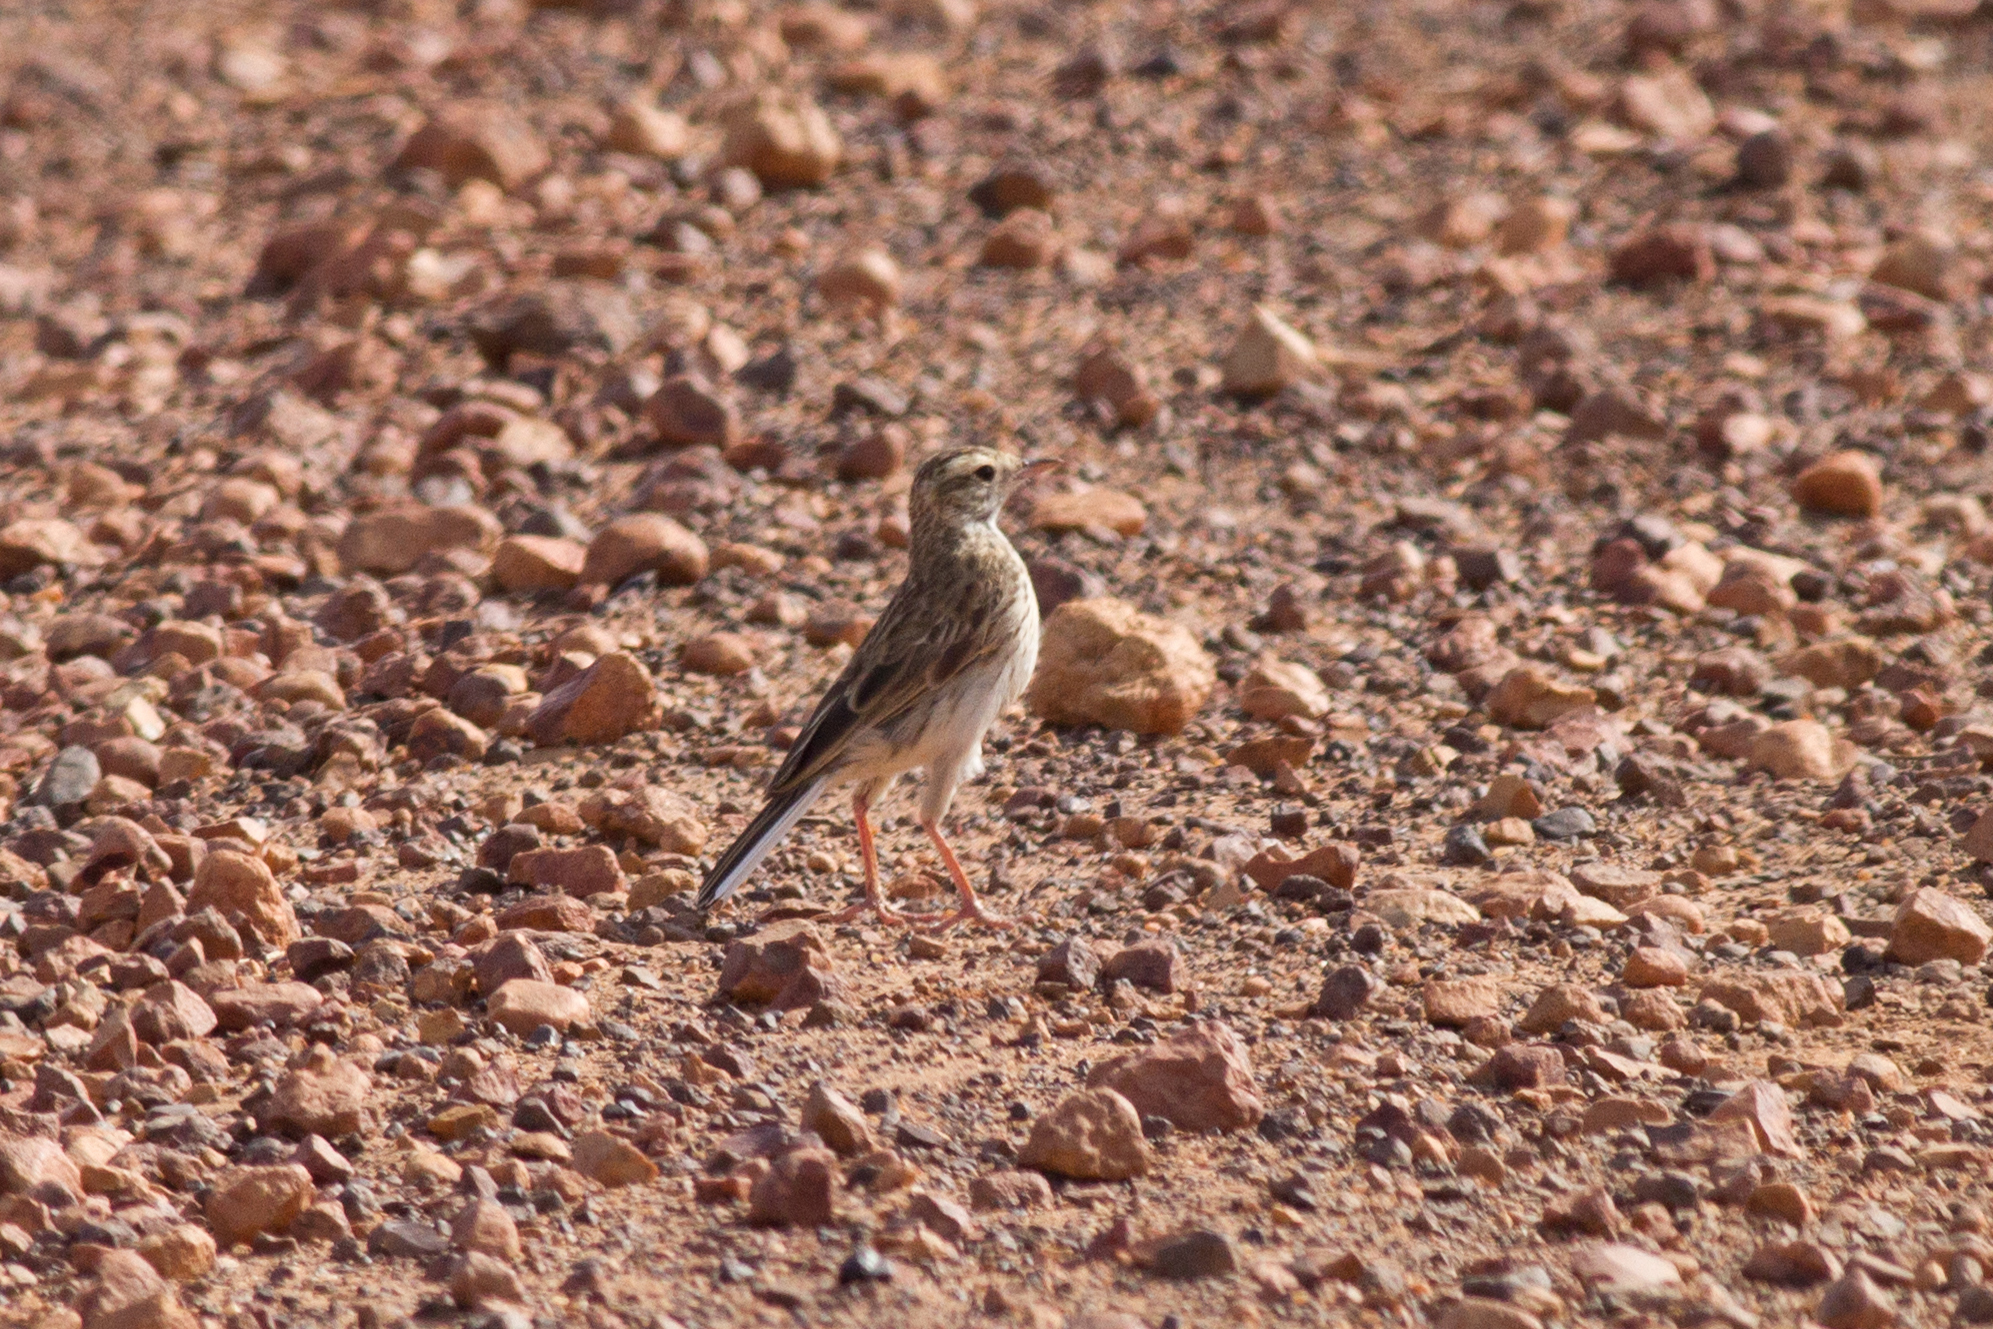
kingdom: Animalia
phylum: Chordata
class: Aves
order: Passeriformes
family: Motacillidae
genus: Anthus
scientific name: Anthus australis
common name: Australian pipit
